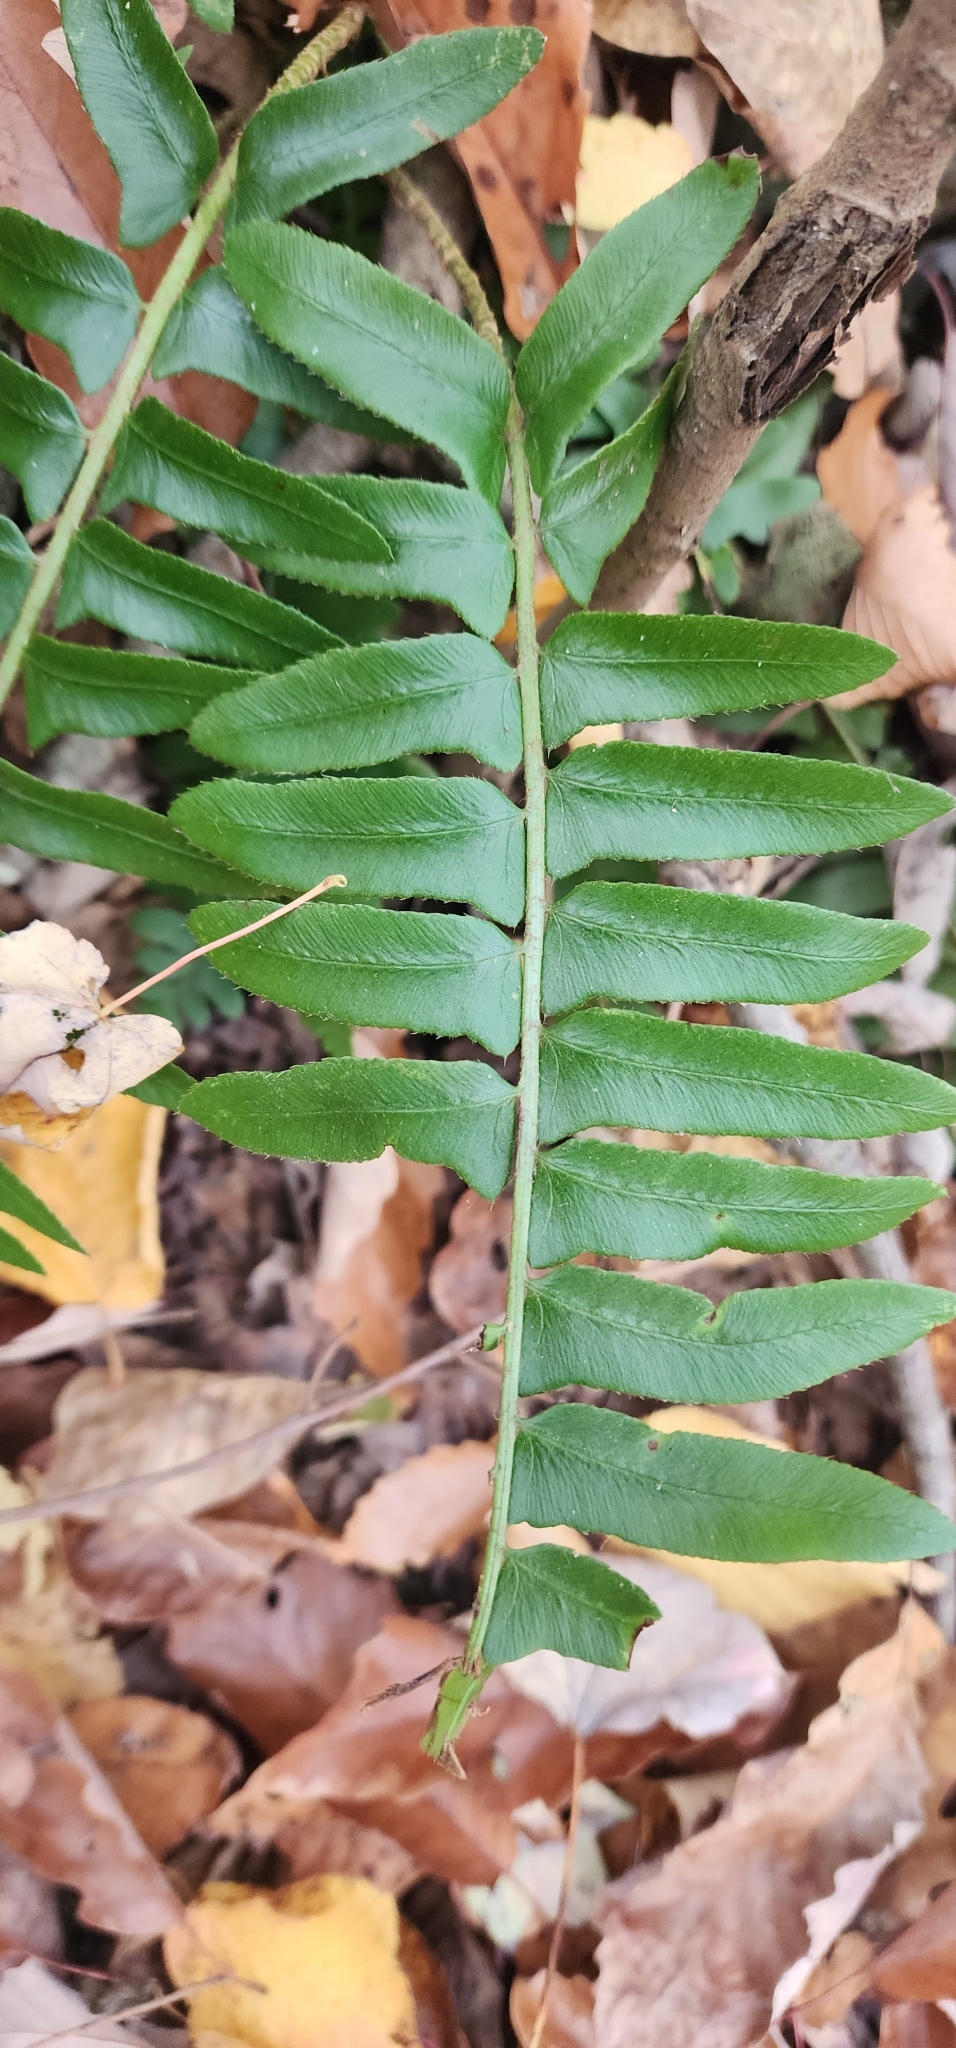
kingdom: Plantae
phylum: Tracheophyta
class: Polypodiopsida
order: Polypodiales
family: Dryopteridaceae
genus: Polystichum
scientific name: Polystichum acrostichoides
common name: Christmas fern
